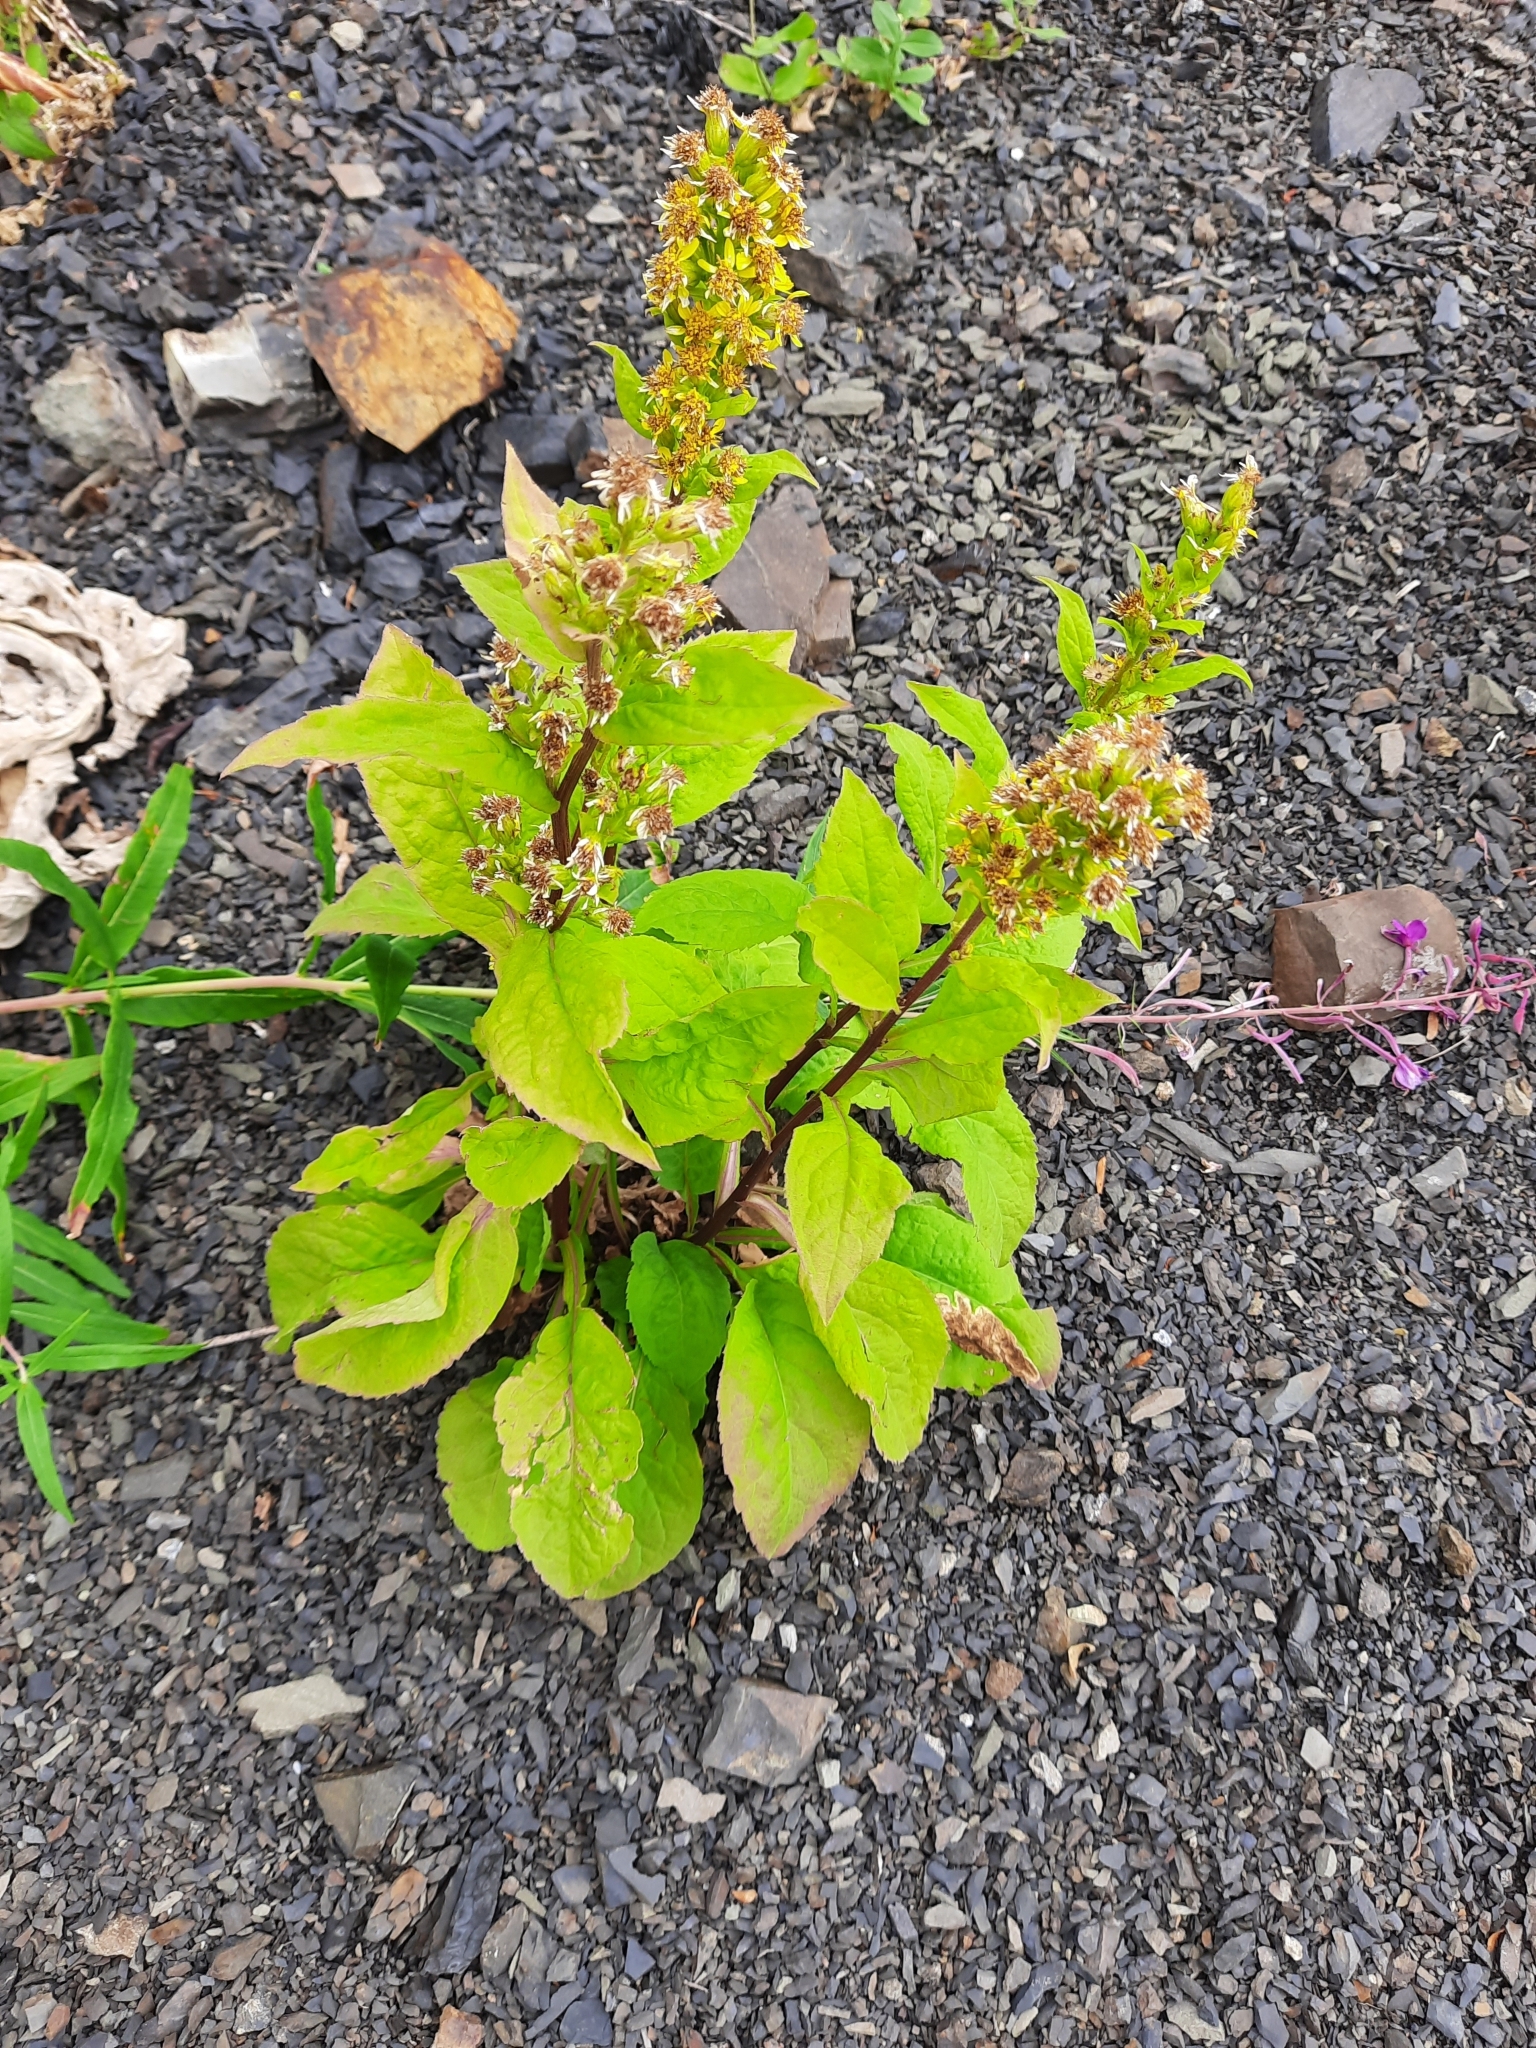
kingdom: Plantae
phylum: Tracheophyta
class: Magnoliopsida
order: Asterales
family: Asteraceae
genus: Solidago
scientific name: Solidago virgaurea
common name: Goldenrod
